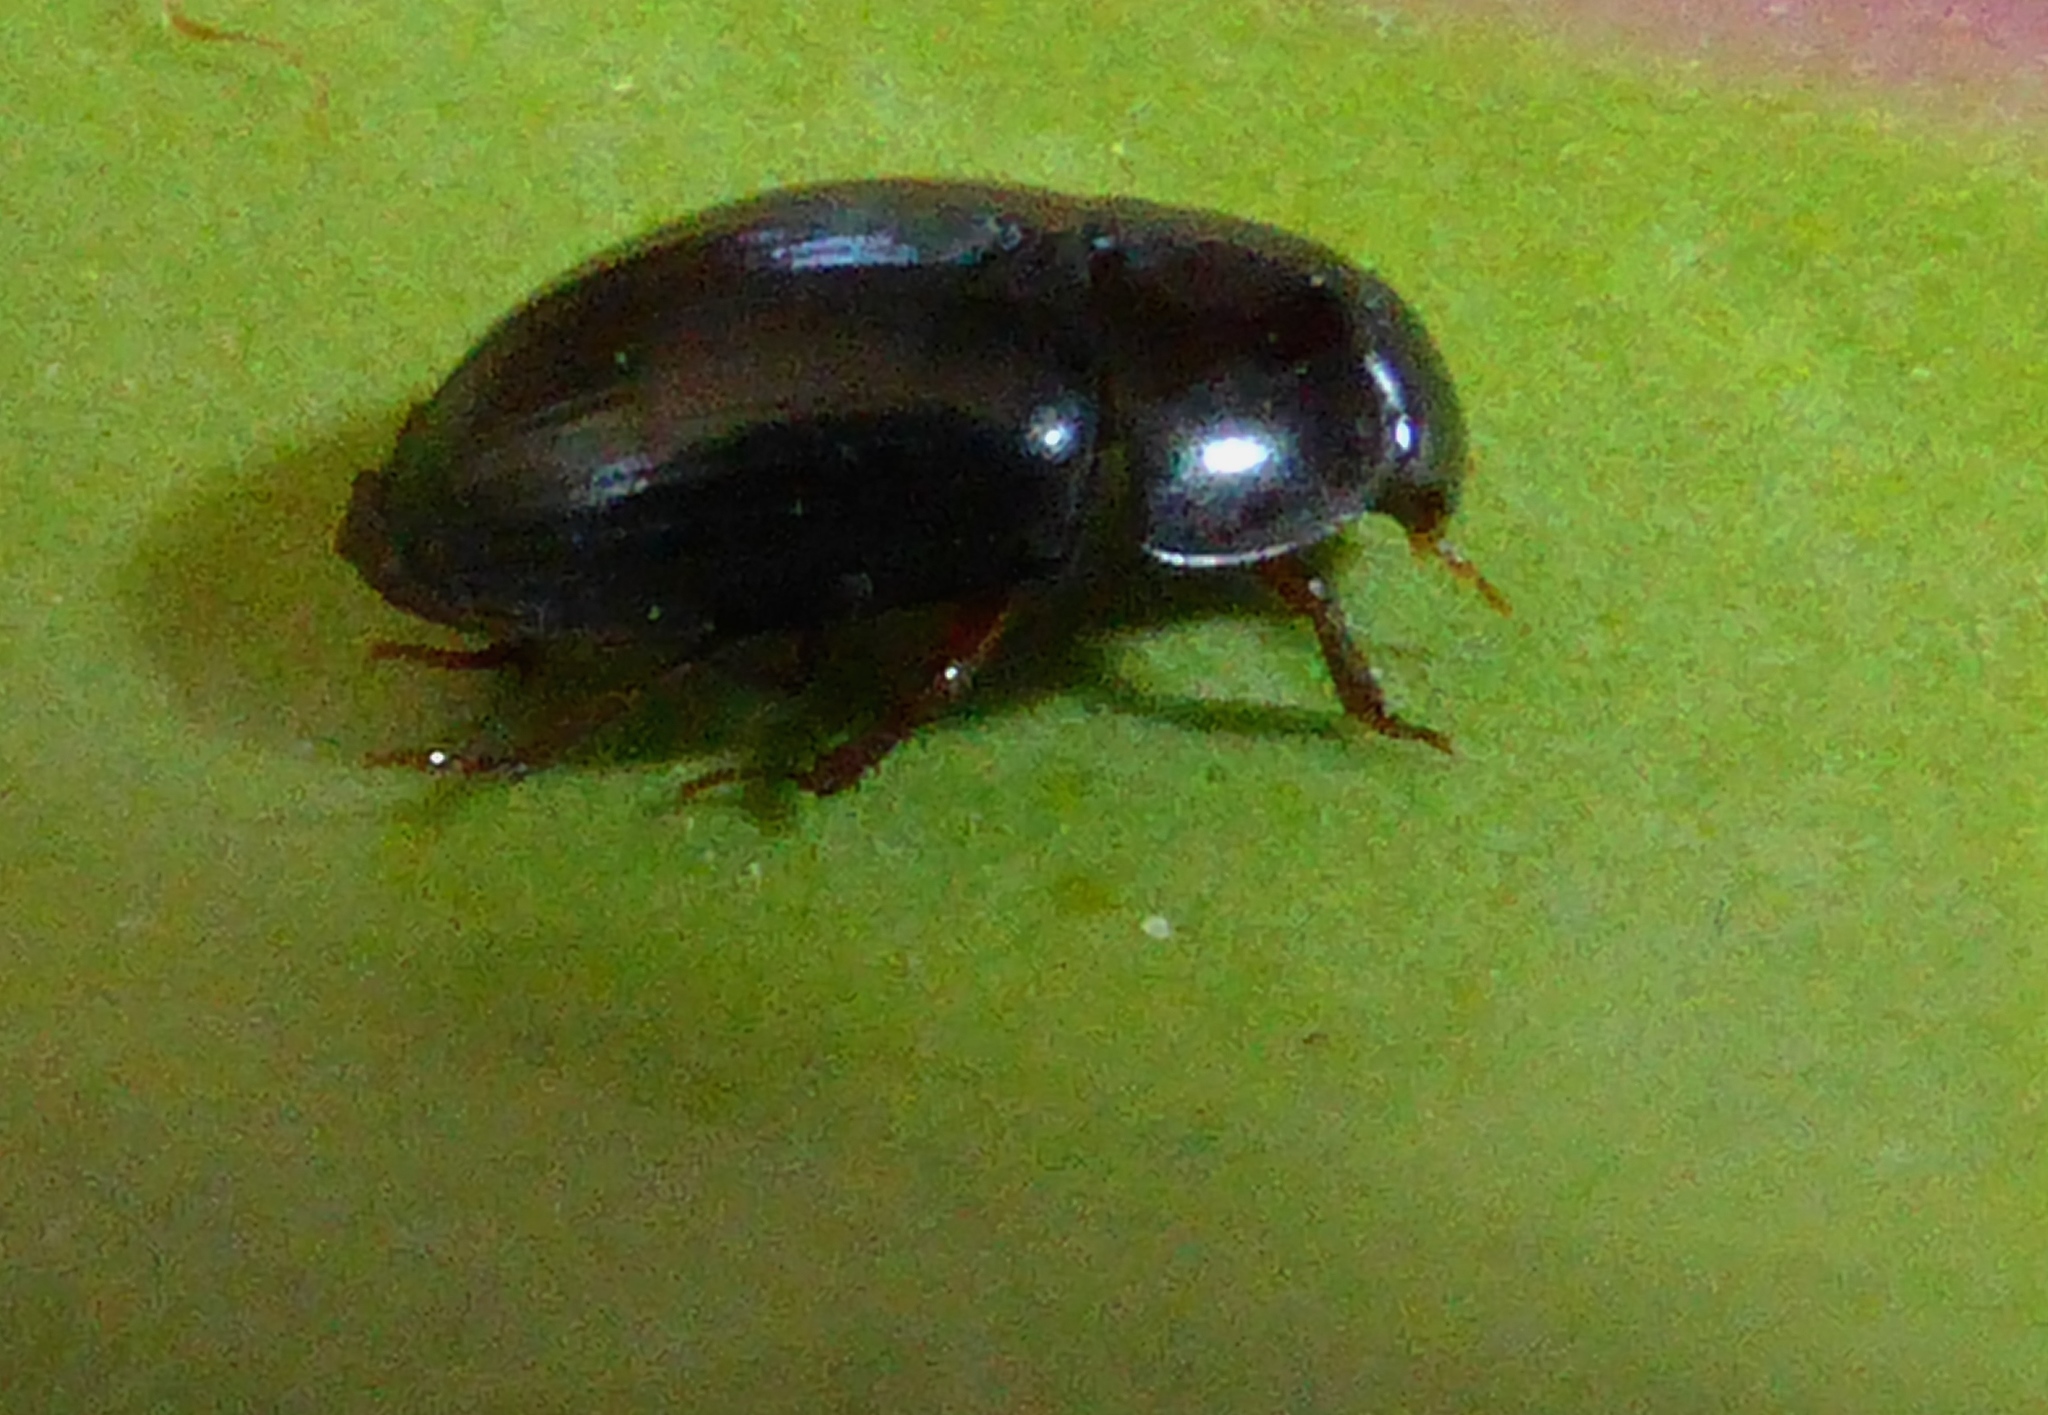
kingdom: Animalia
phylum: Arthropoda
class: Insecta
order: Coleoptera
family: Hydrophilidae
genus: Dactylosternum
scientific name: Dactylosternum abdominale
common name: Water scavenger beetle
